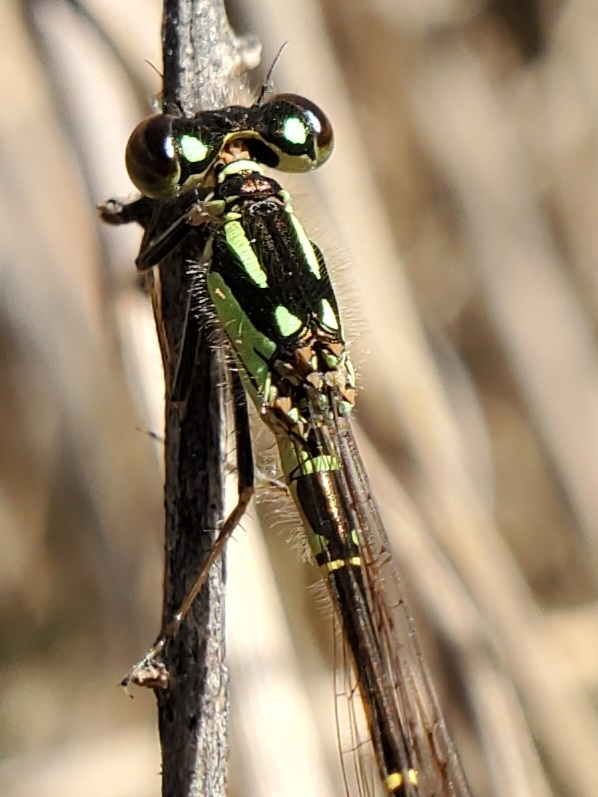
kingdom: Animalia
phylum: Arthropoda
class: Insecta
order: Odonata
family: Coenagrionidae
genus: Ischnura
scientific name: Ischnura posita
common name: Fragile forktail
